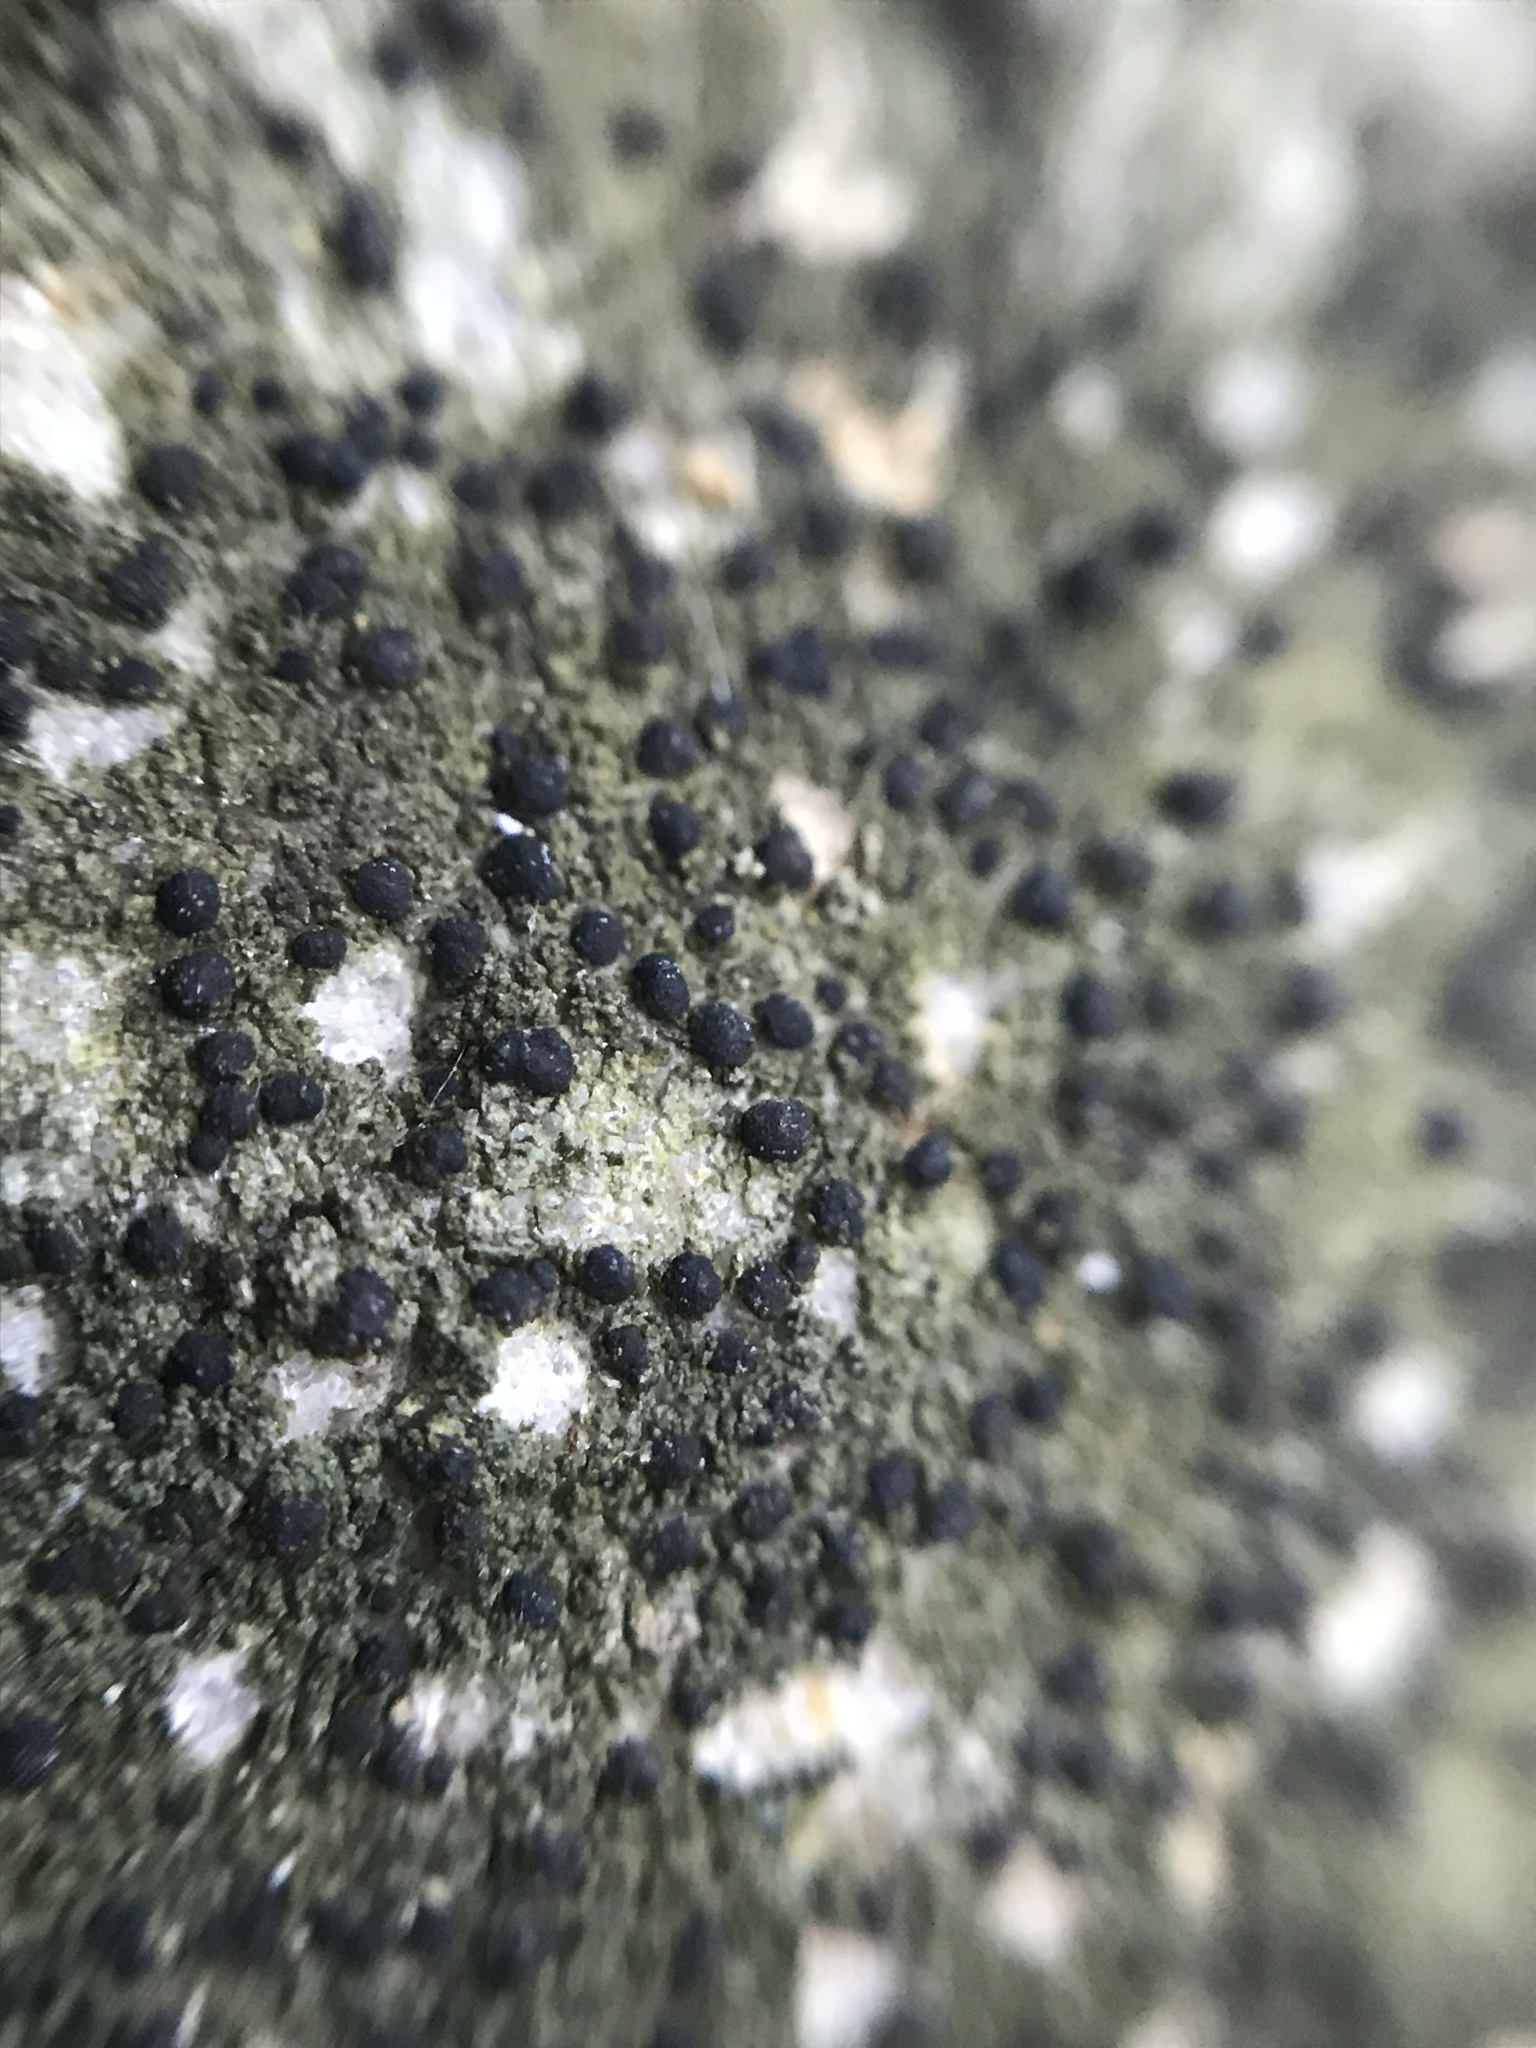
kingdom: Fungi
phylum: Ascomycota
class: Lecanoromycetes
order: Lecanorales
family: Ramalinaceae
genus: Bacidia
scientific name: Bacidia
